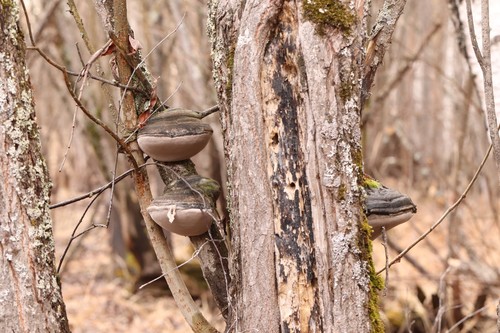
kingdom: Fungi
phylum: Basidiomycota
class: Agaricomycetes
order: Hymenochaetales
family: Hymenochaetaceae
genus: Phellinus
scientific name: Phellinus igniarius
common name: Willow bracket
